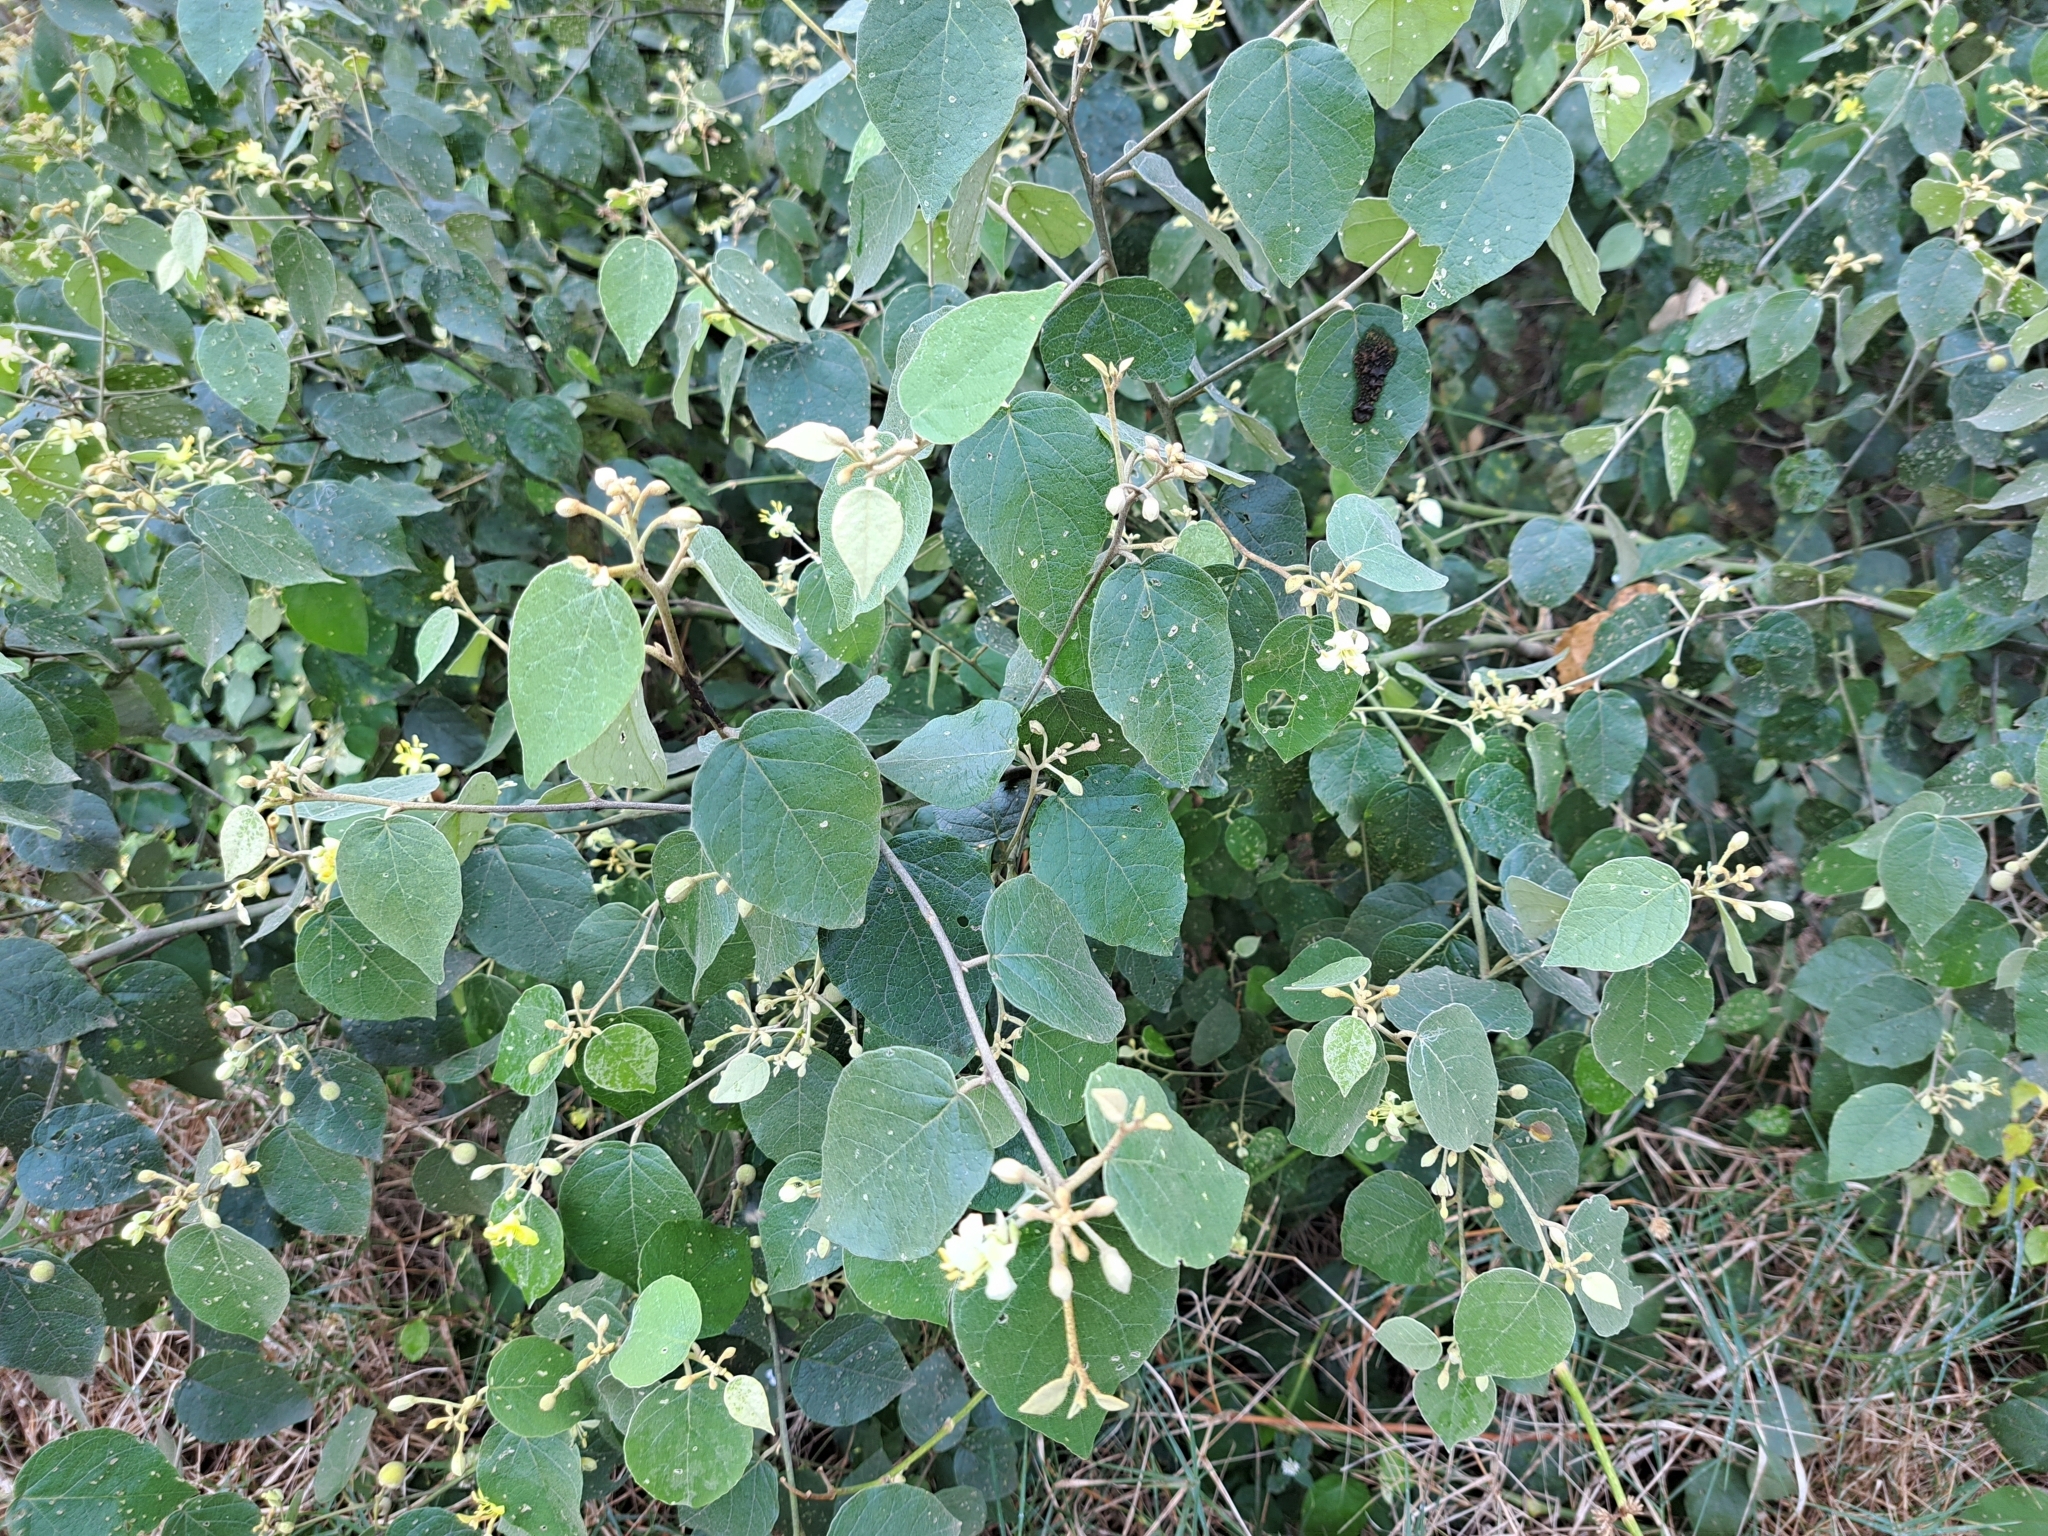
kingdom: Plantae
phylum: Tracheophyta
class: Magnoliopsida
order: Brassicales
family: Capparaceae
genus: Capparicordis
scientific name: Capparicordis crotonoides
